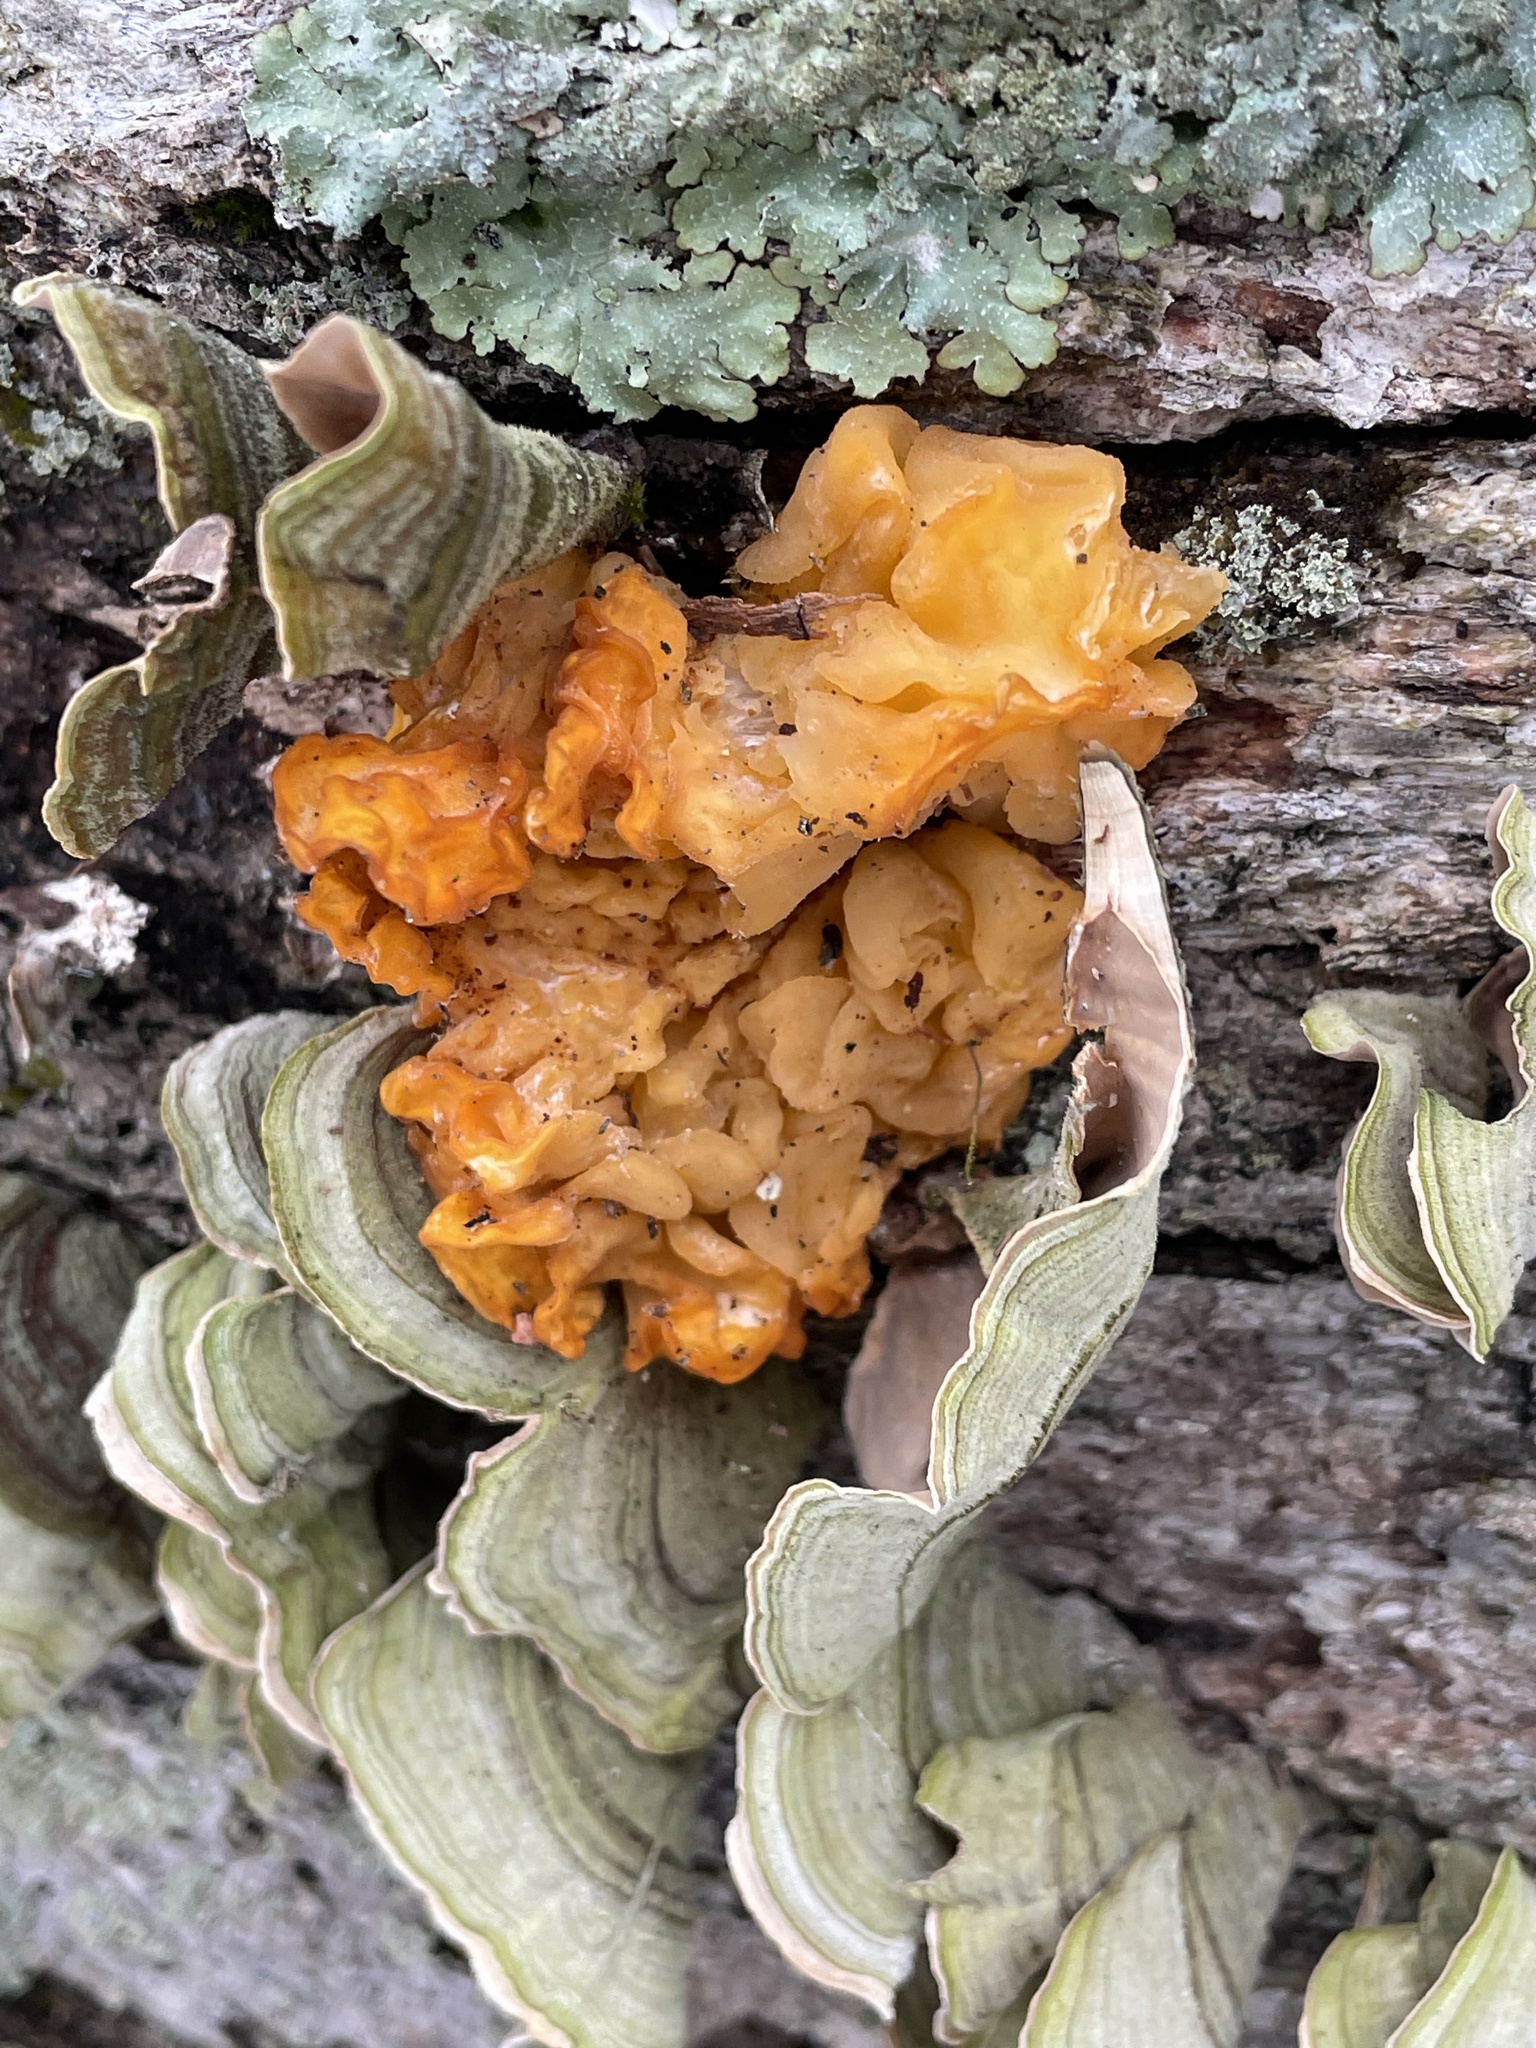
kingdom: Fungi
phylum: Basidiomycota
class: Tremellomycetes
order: Tremellales
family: Naemateliaceae
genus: Naematelia
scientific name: Naematelia aurantia
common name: Golden ear
